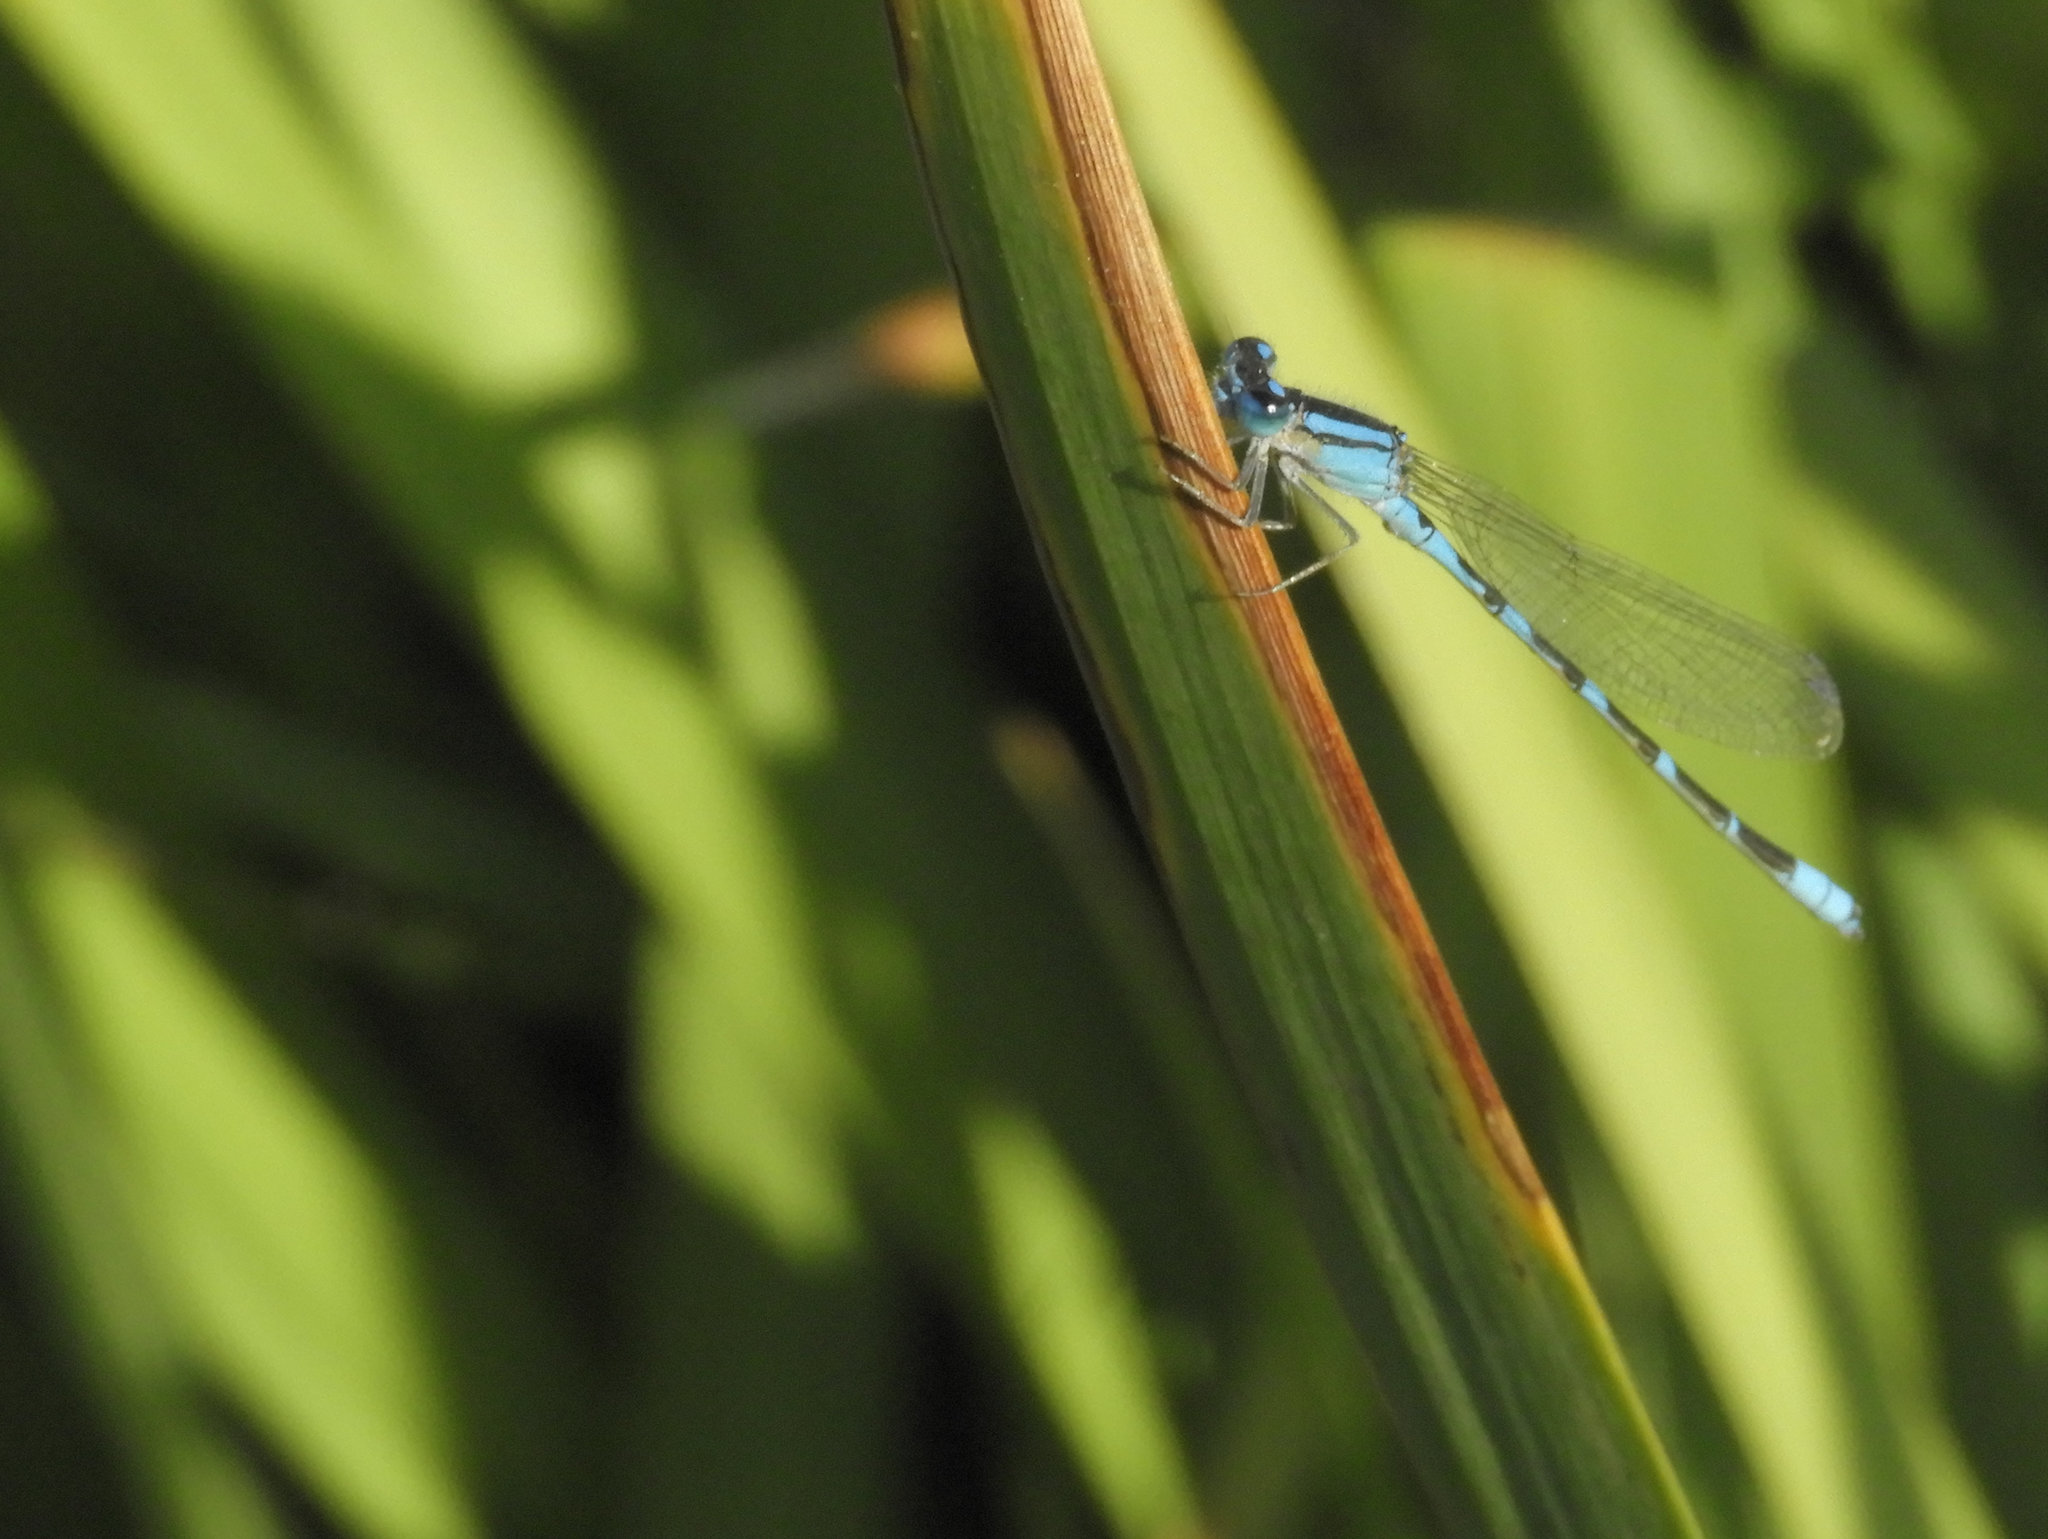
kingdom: Animalia
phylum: Arthropoda
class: Insecta
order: Odonata
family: Coenagrionidae
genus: Enallagma
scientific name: Enallagma carunculatum
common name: Tule bluet
